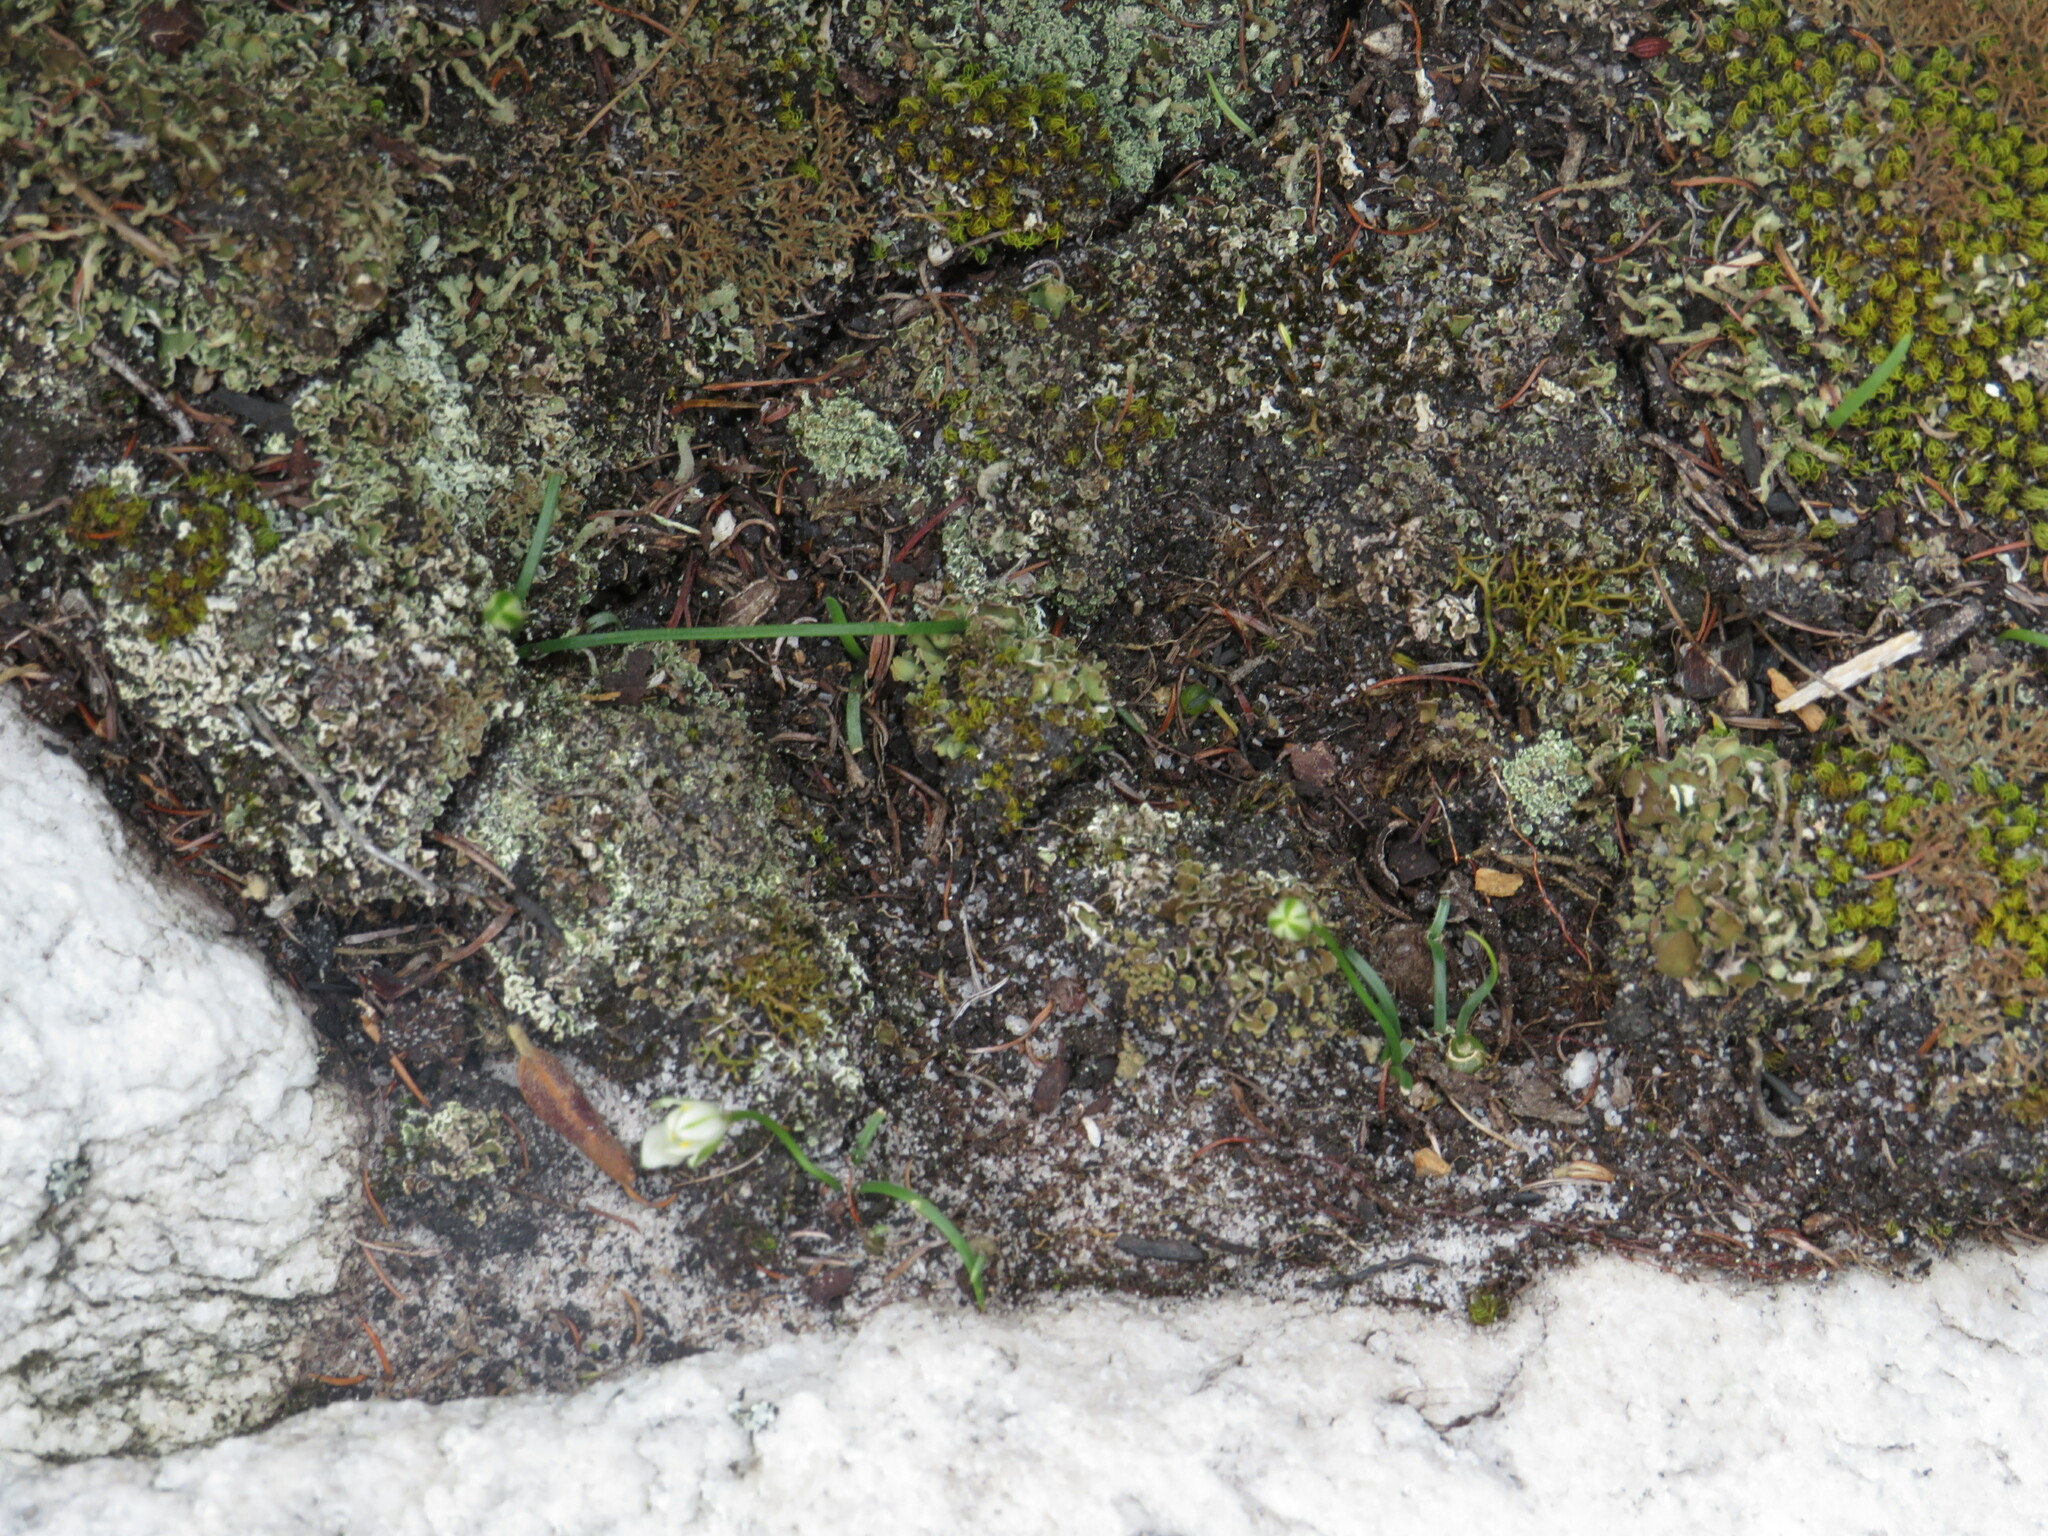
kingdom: Plantae
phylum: Tracheophyta
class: Liliopsida
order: Asparagales
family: Asparagaceae
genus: Ornithogalum
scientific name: Ornithogalum niveum
